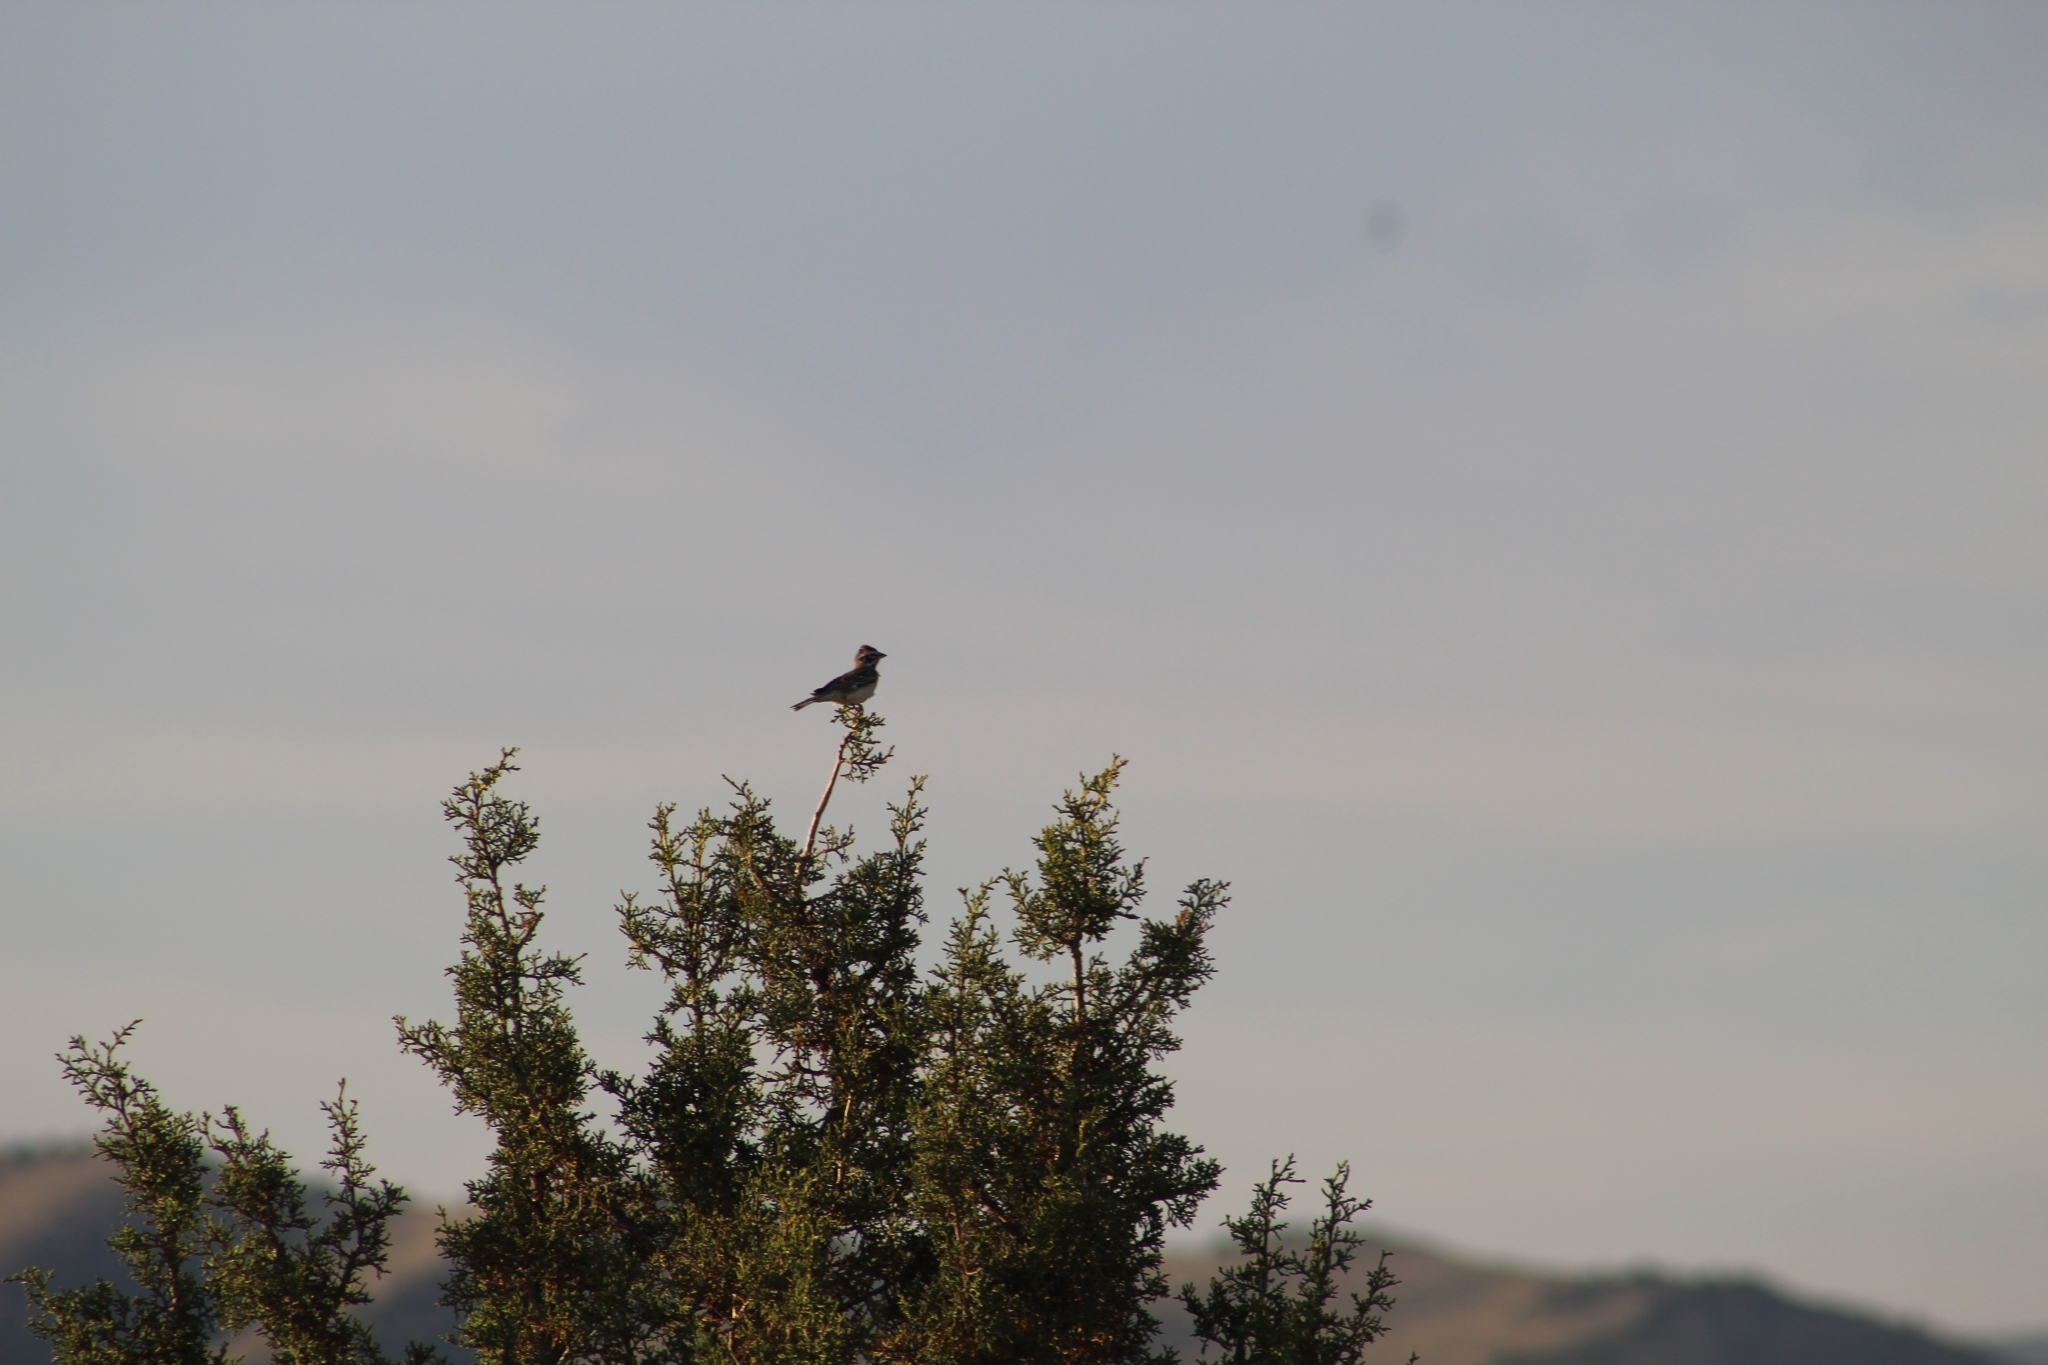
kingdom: Animalia
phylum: Chordata
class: Aves
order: Passeriformes
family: Passerellidae
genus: Chondestes
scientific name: Chondestes grammacus
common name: Lark sparrow
